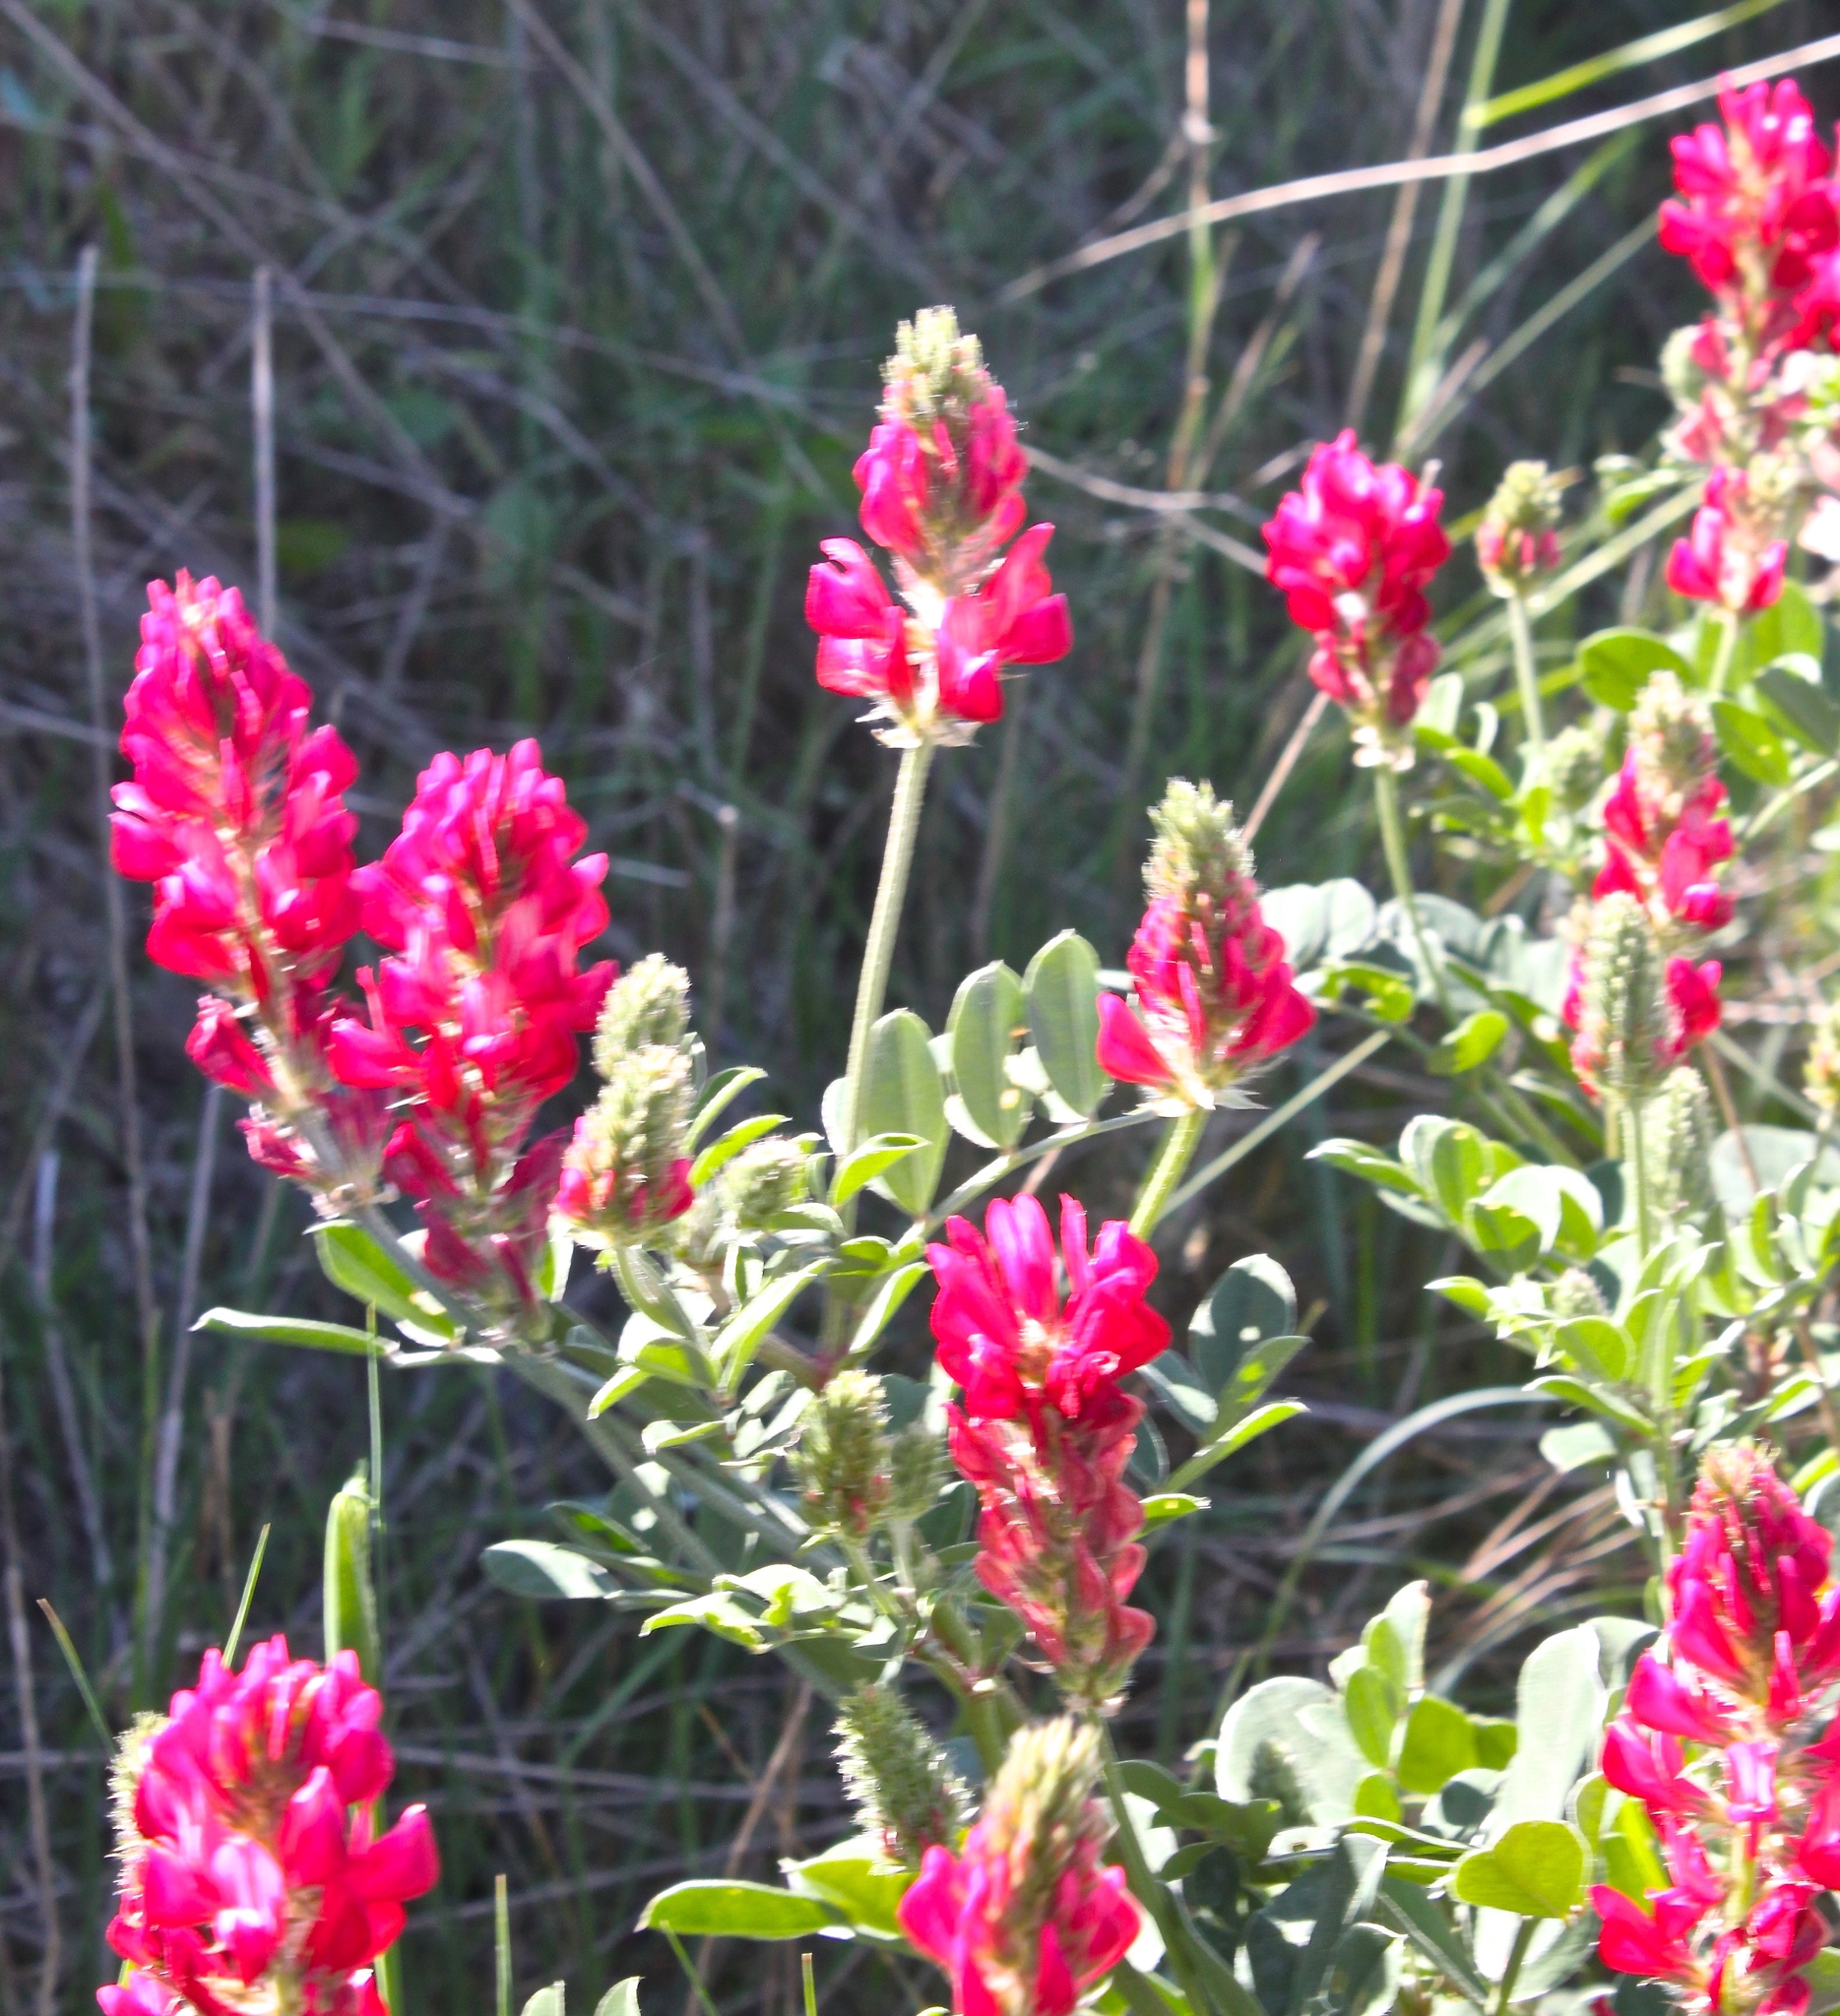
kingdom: Plantae
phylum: Tracheophyta
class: Magnoliopsida
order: Fabales
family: Fabaceae
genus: Sulla
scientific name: Sulla coronaria
